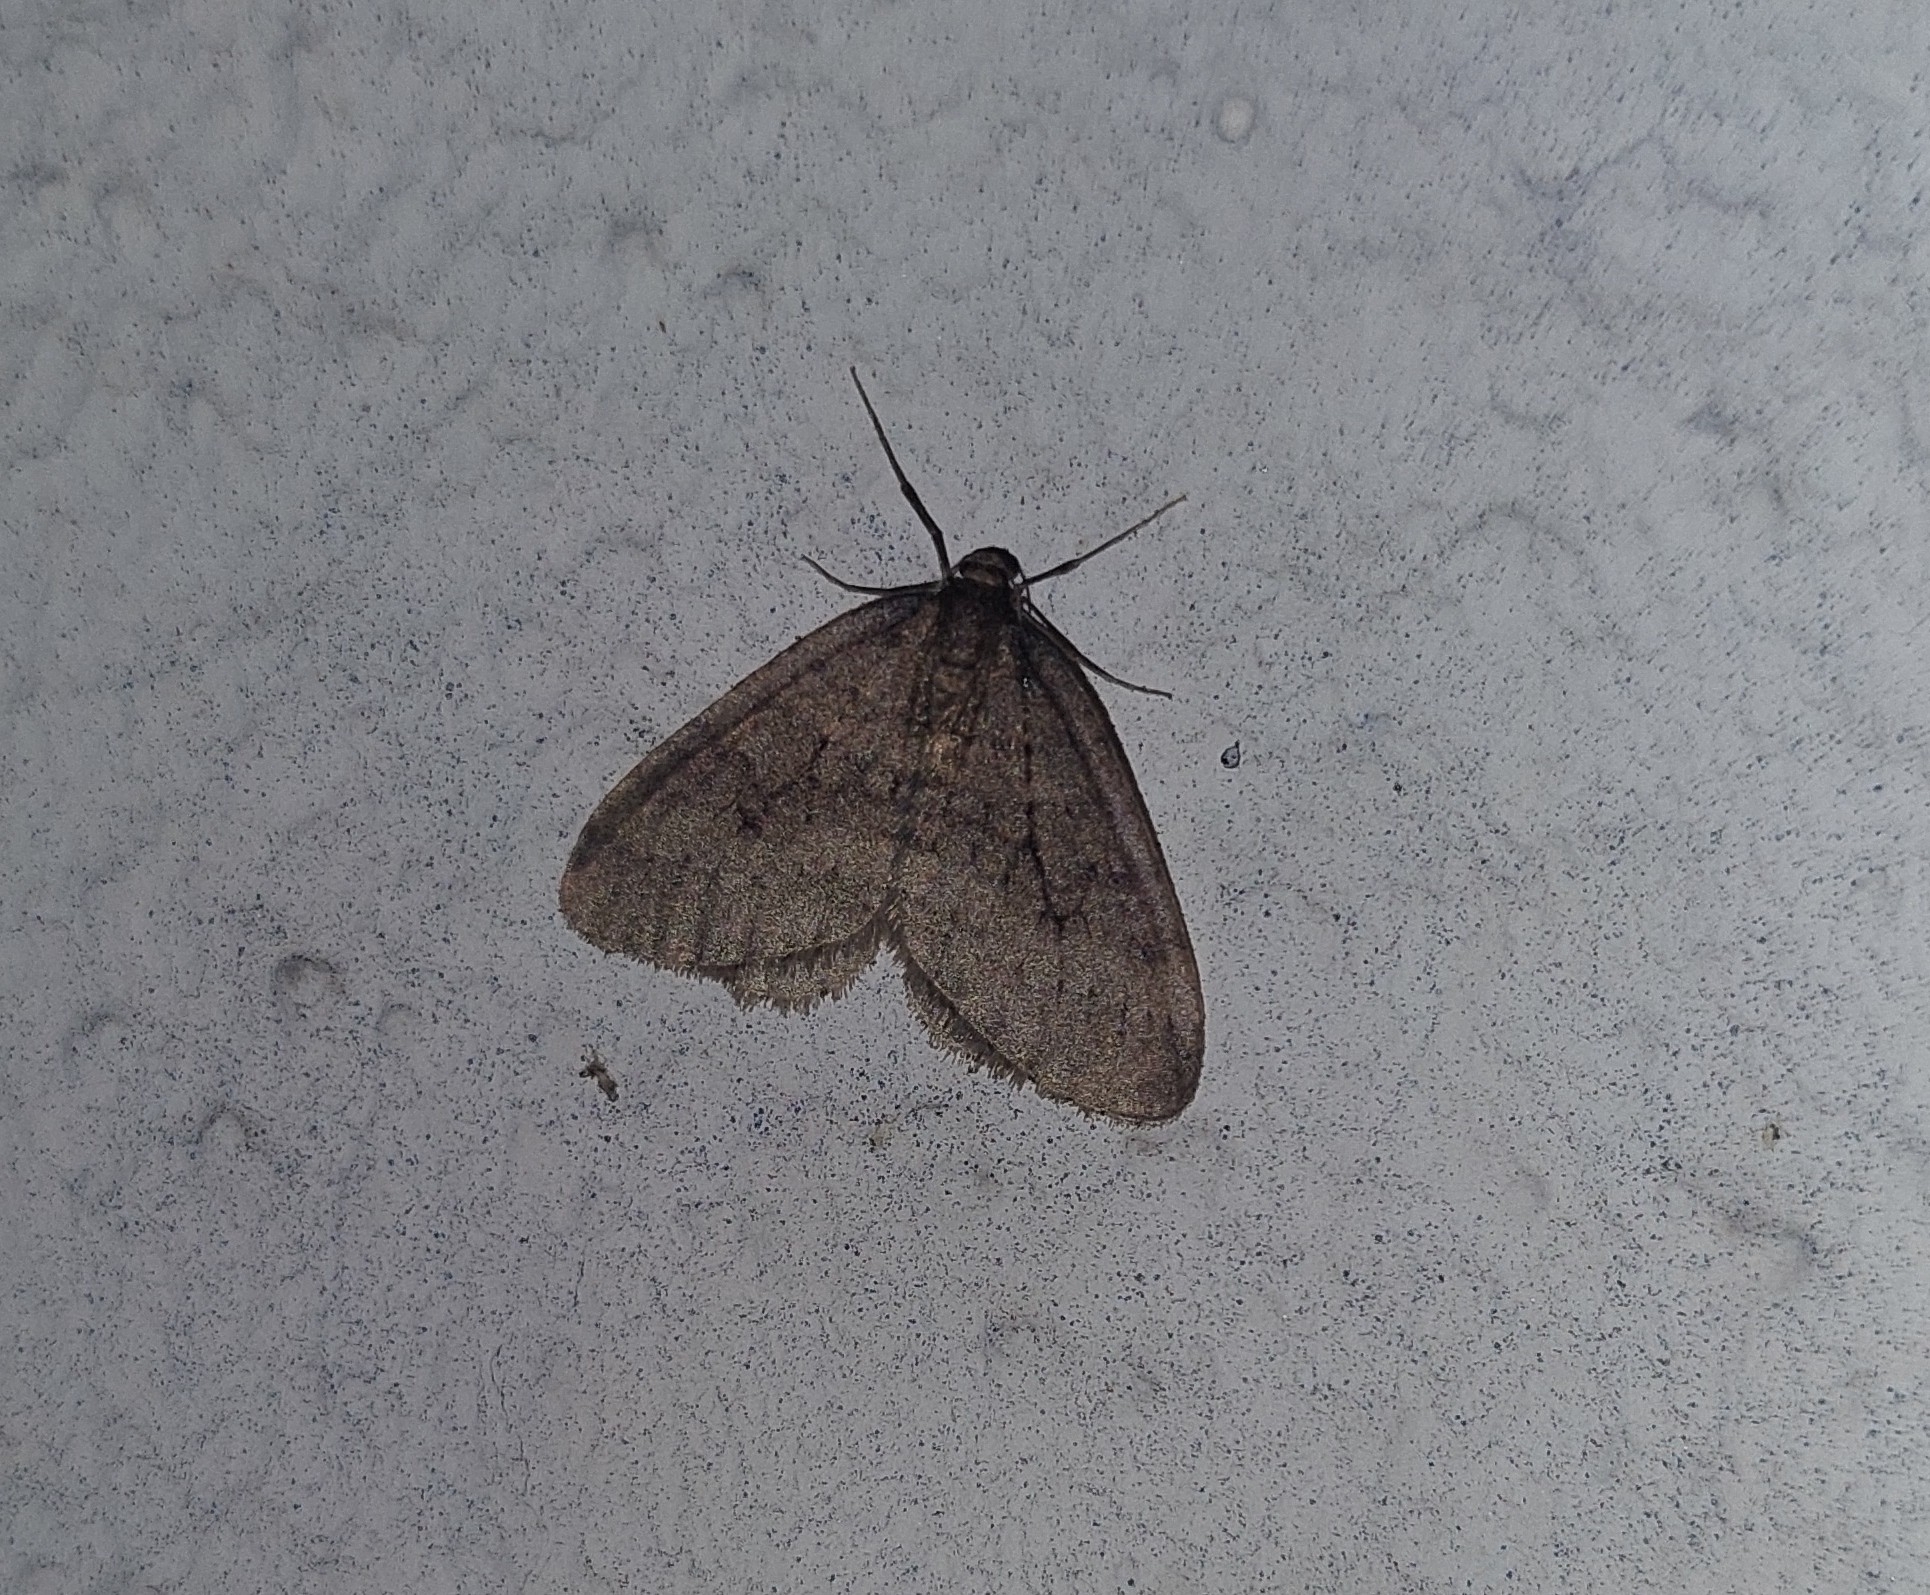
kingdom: Animalia
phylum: Arthropoda
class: Insecta
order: Lepidoptera
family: Geometridae
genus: Operophtera
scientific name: Operophtera brumata
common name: Winter moth
